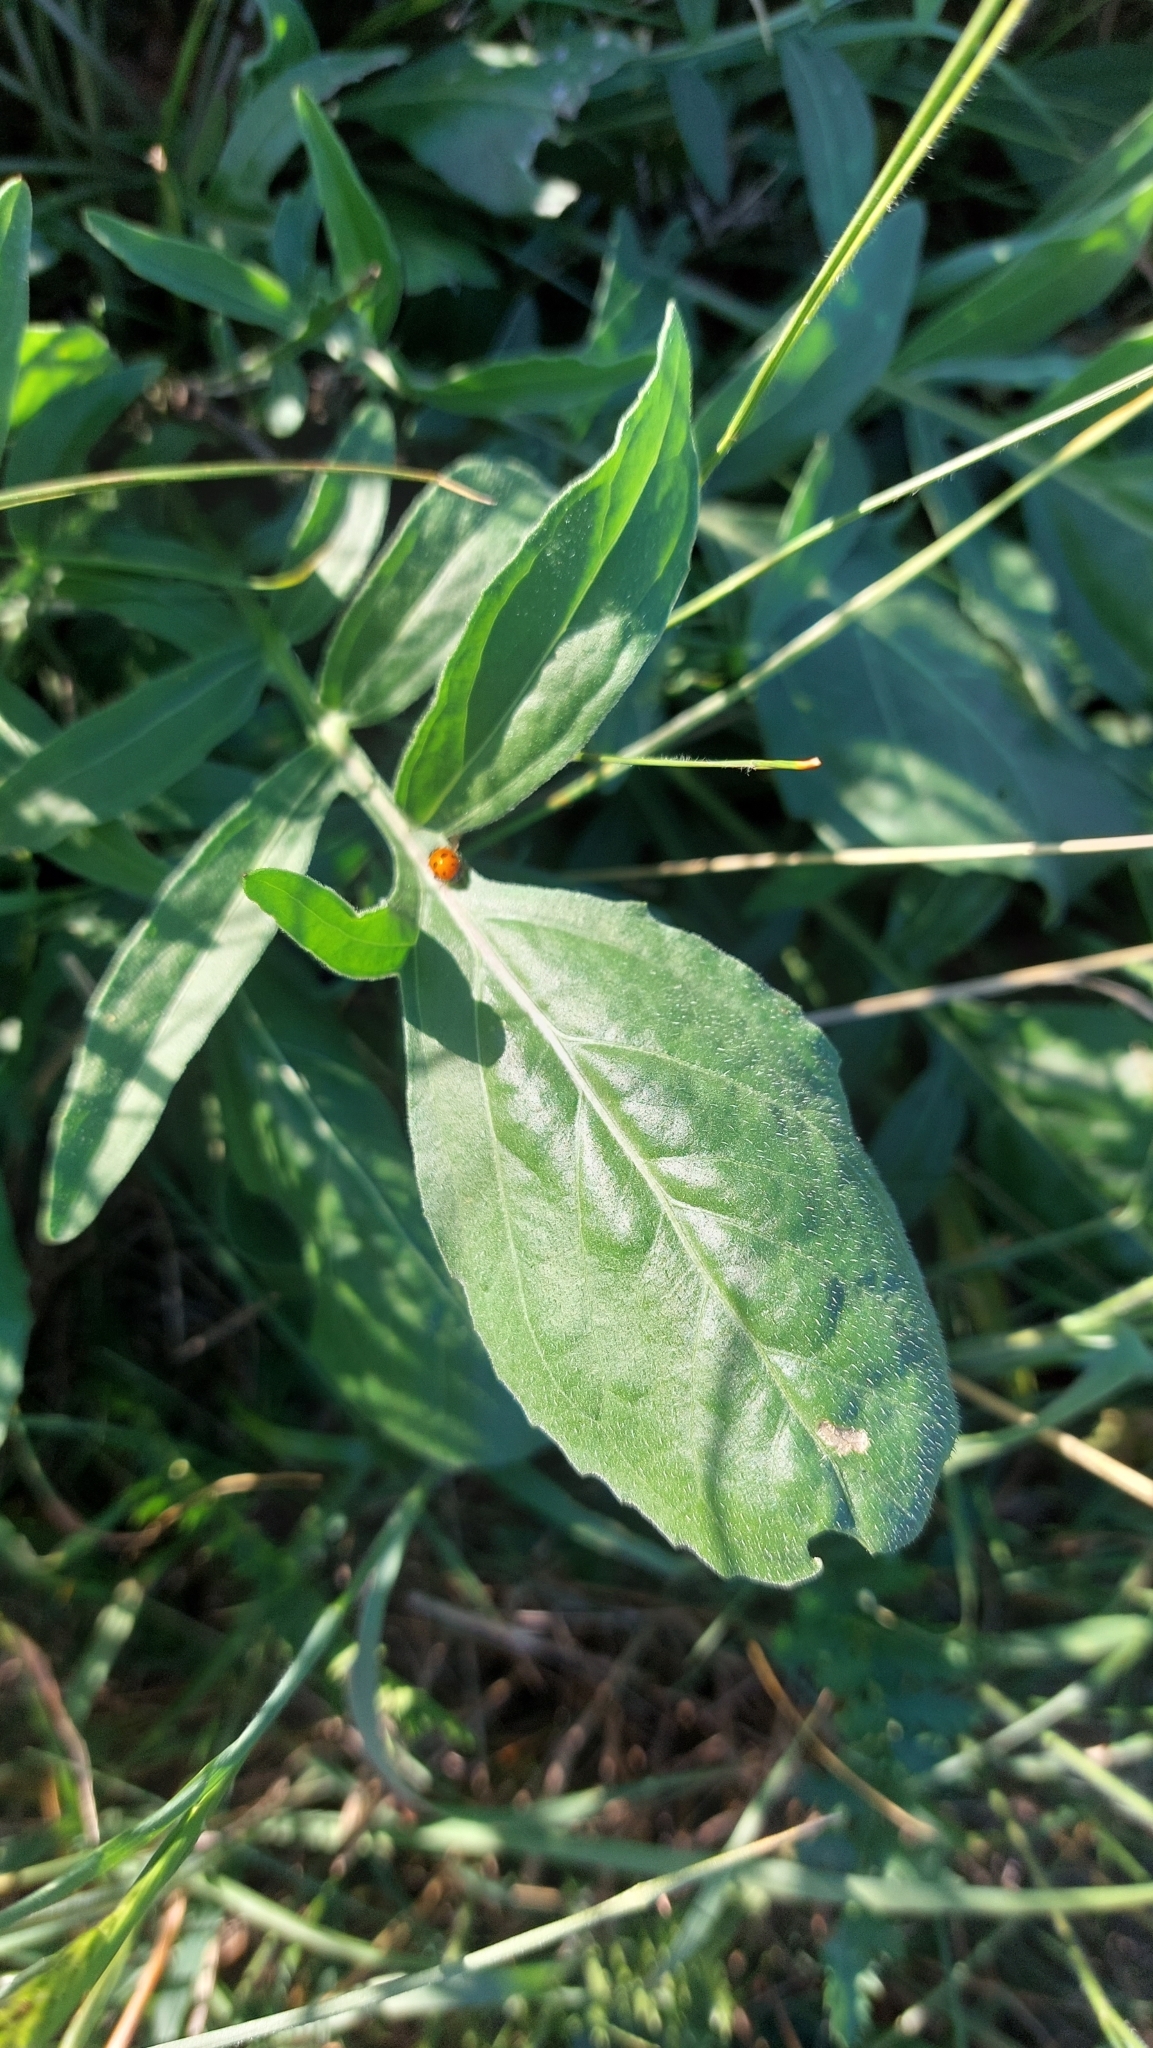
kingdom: Plantae
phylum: Tracheophyta
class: Magnoliopsida
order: Asterales
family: Asteraceae
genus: Centaurea
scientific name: Centaurea scabiosa
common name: Greater knapweed
